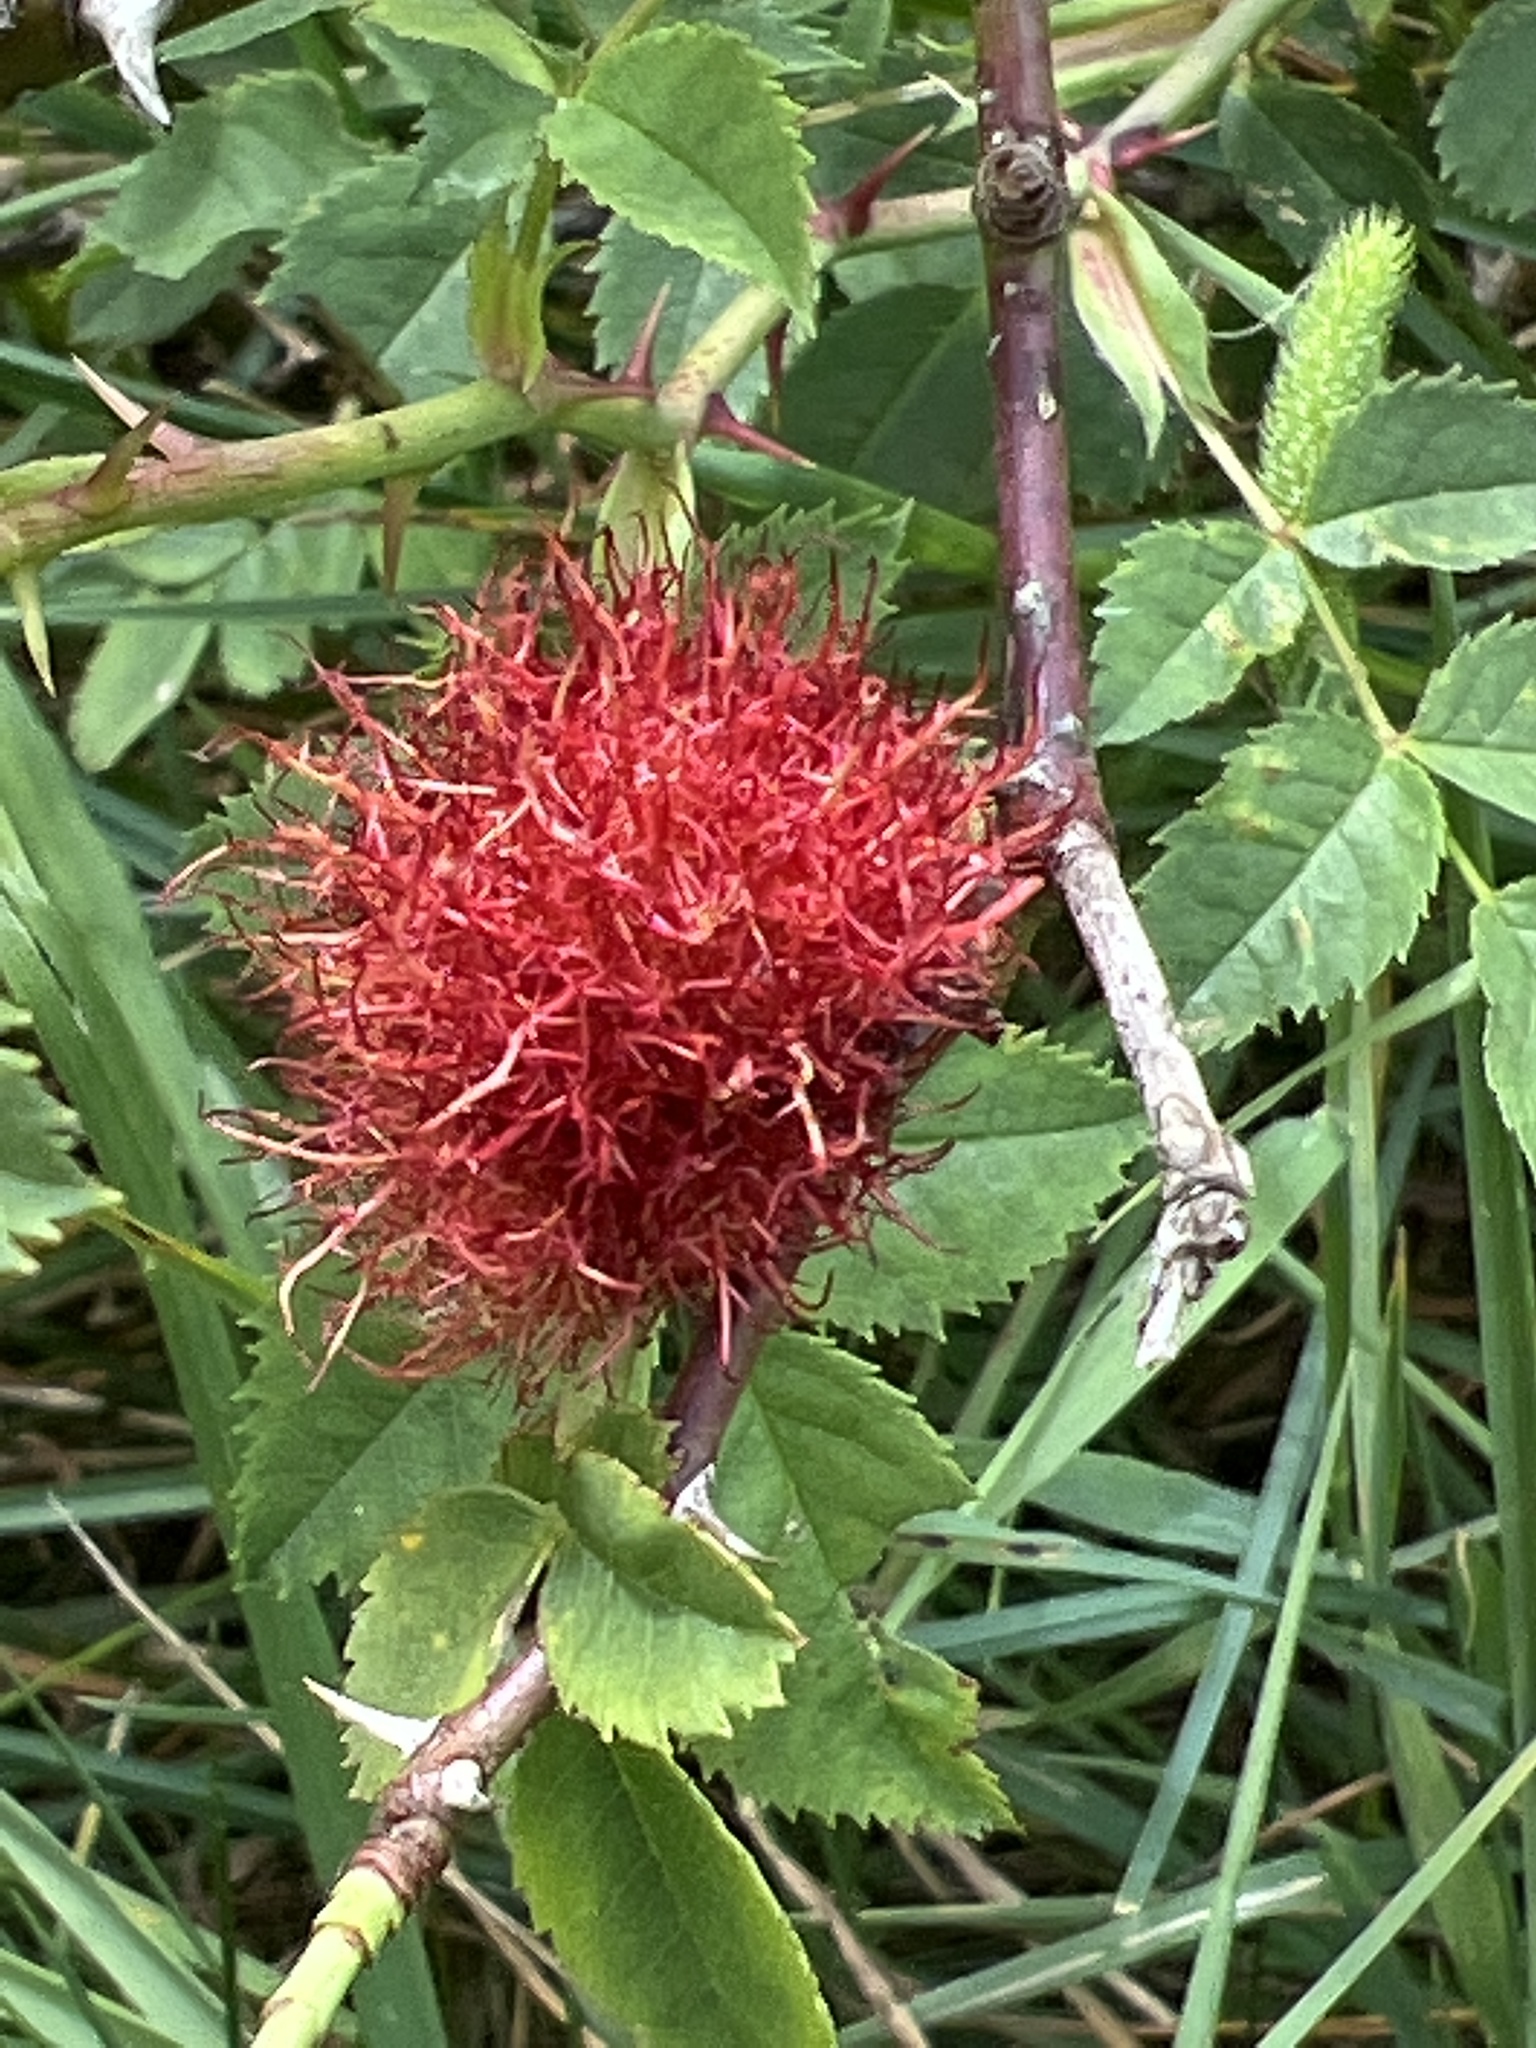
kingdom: Animalia
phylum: Arthropoda
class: Insecta
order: Hymenoptera
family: Cynipidae
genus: Diplolepis
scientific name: Diplolepis rosae
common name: Bedeguar gall
